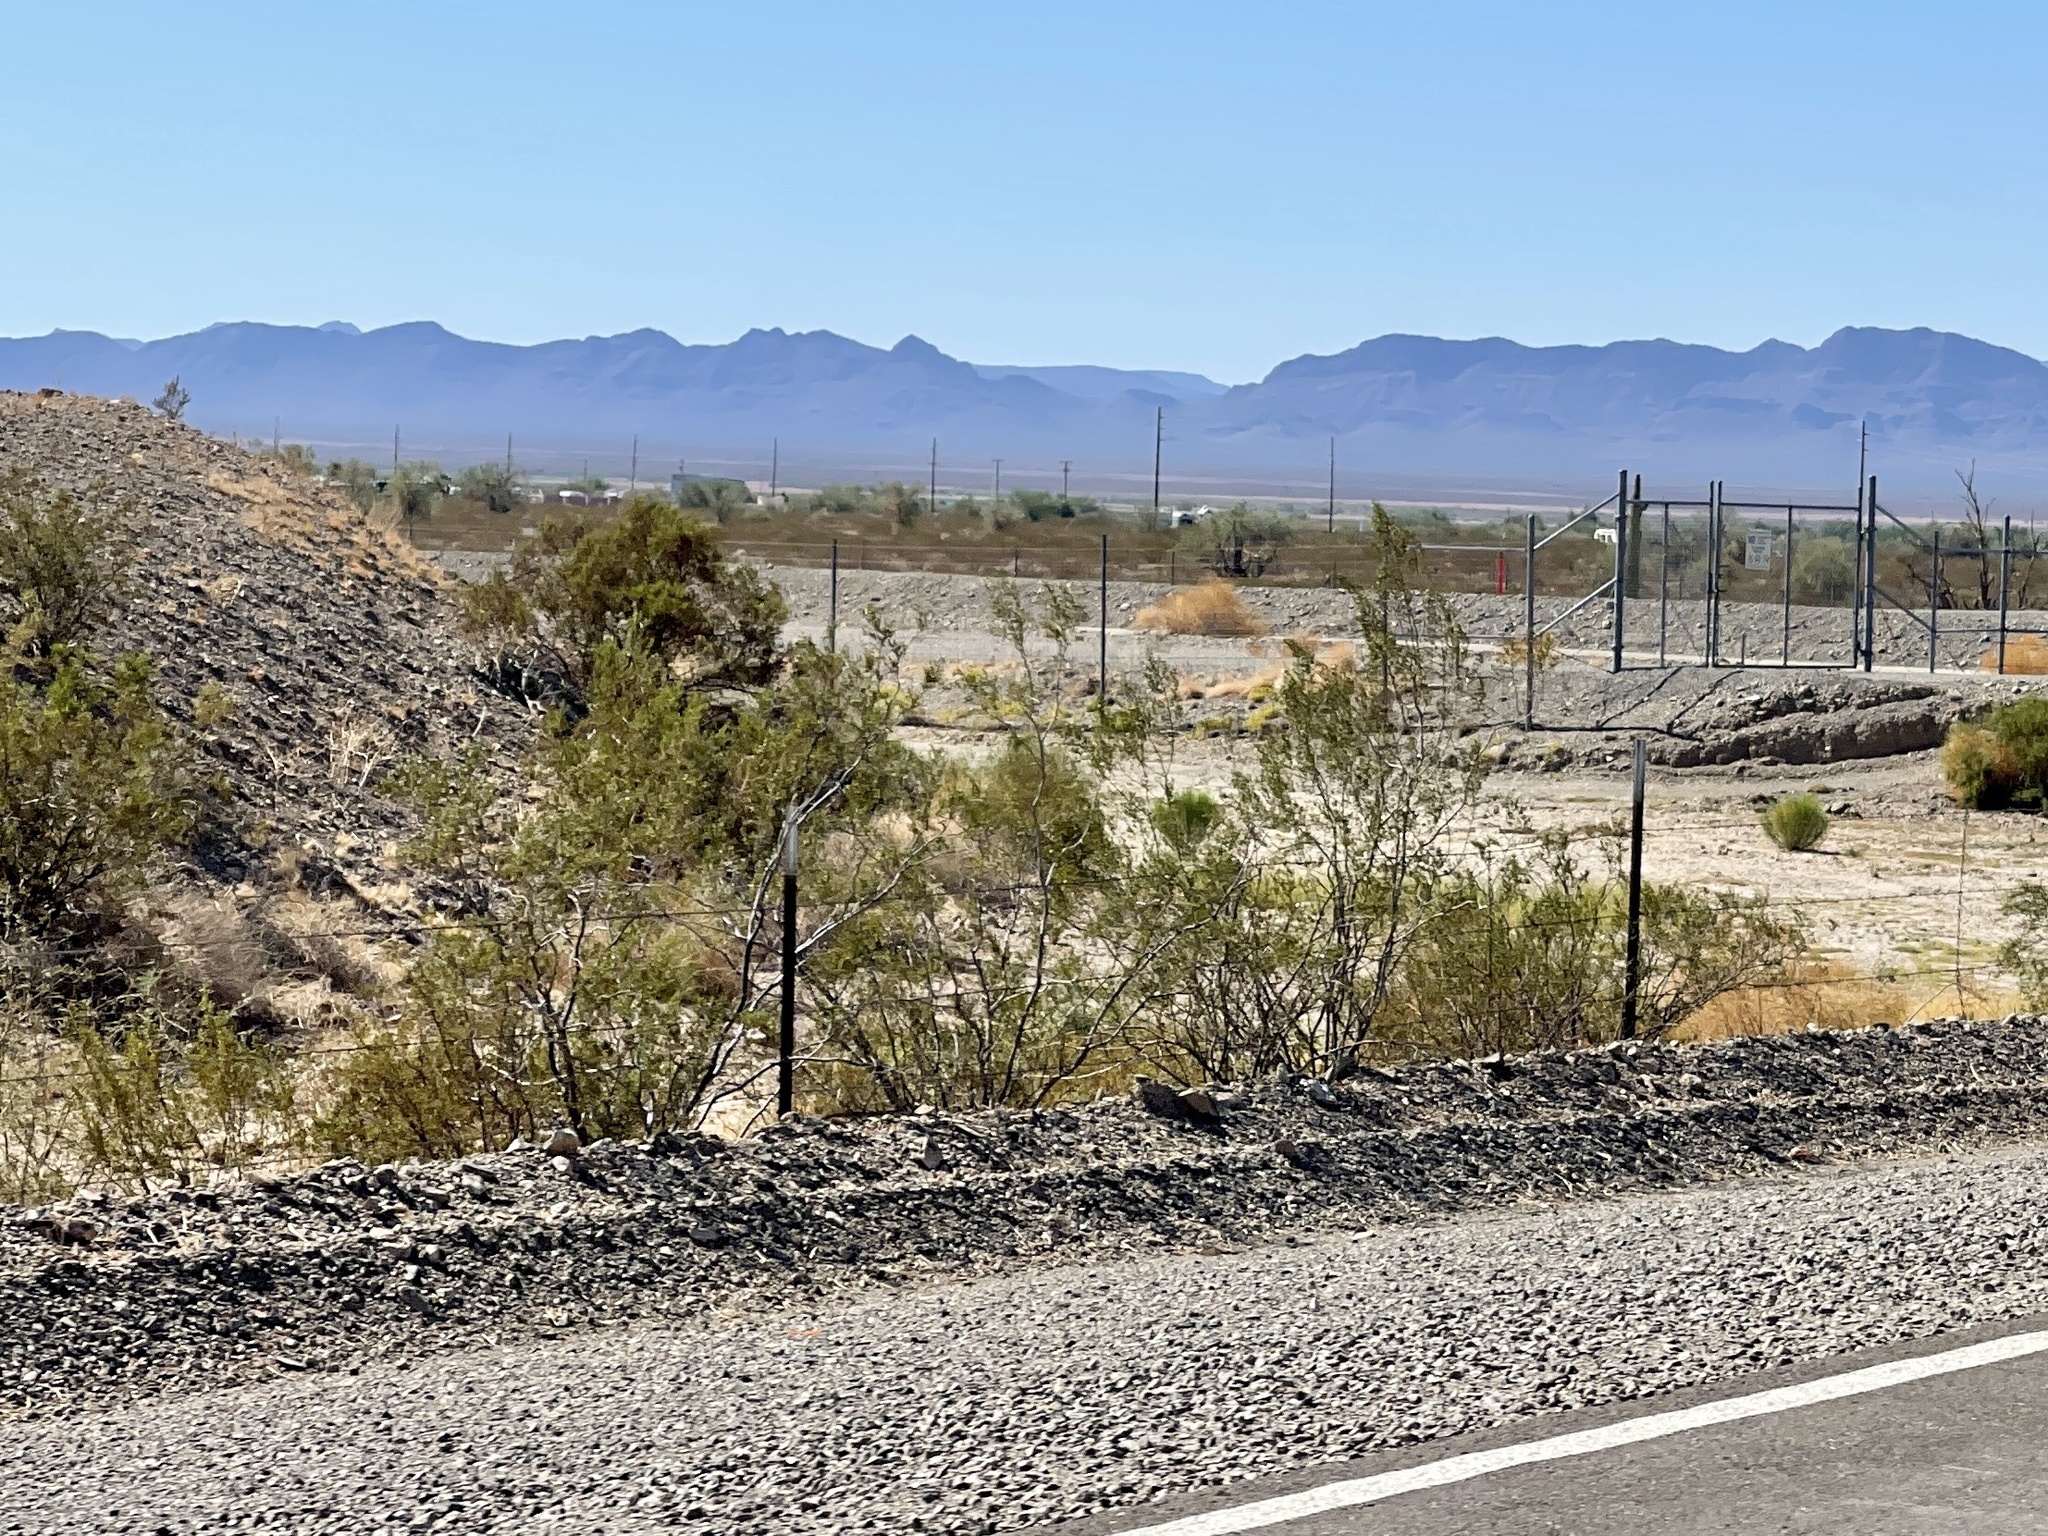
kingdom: Plantae
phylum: Tracheophyta
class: Magnoliopsida
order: Zygophyllales
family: Zygophyllaceae
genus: Larrea
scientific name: Larrea tridentata
